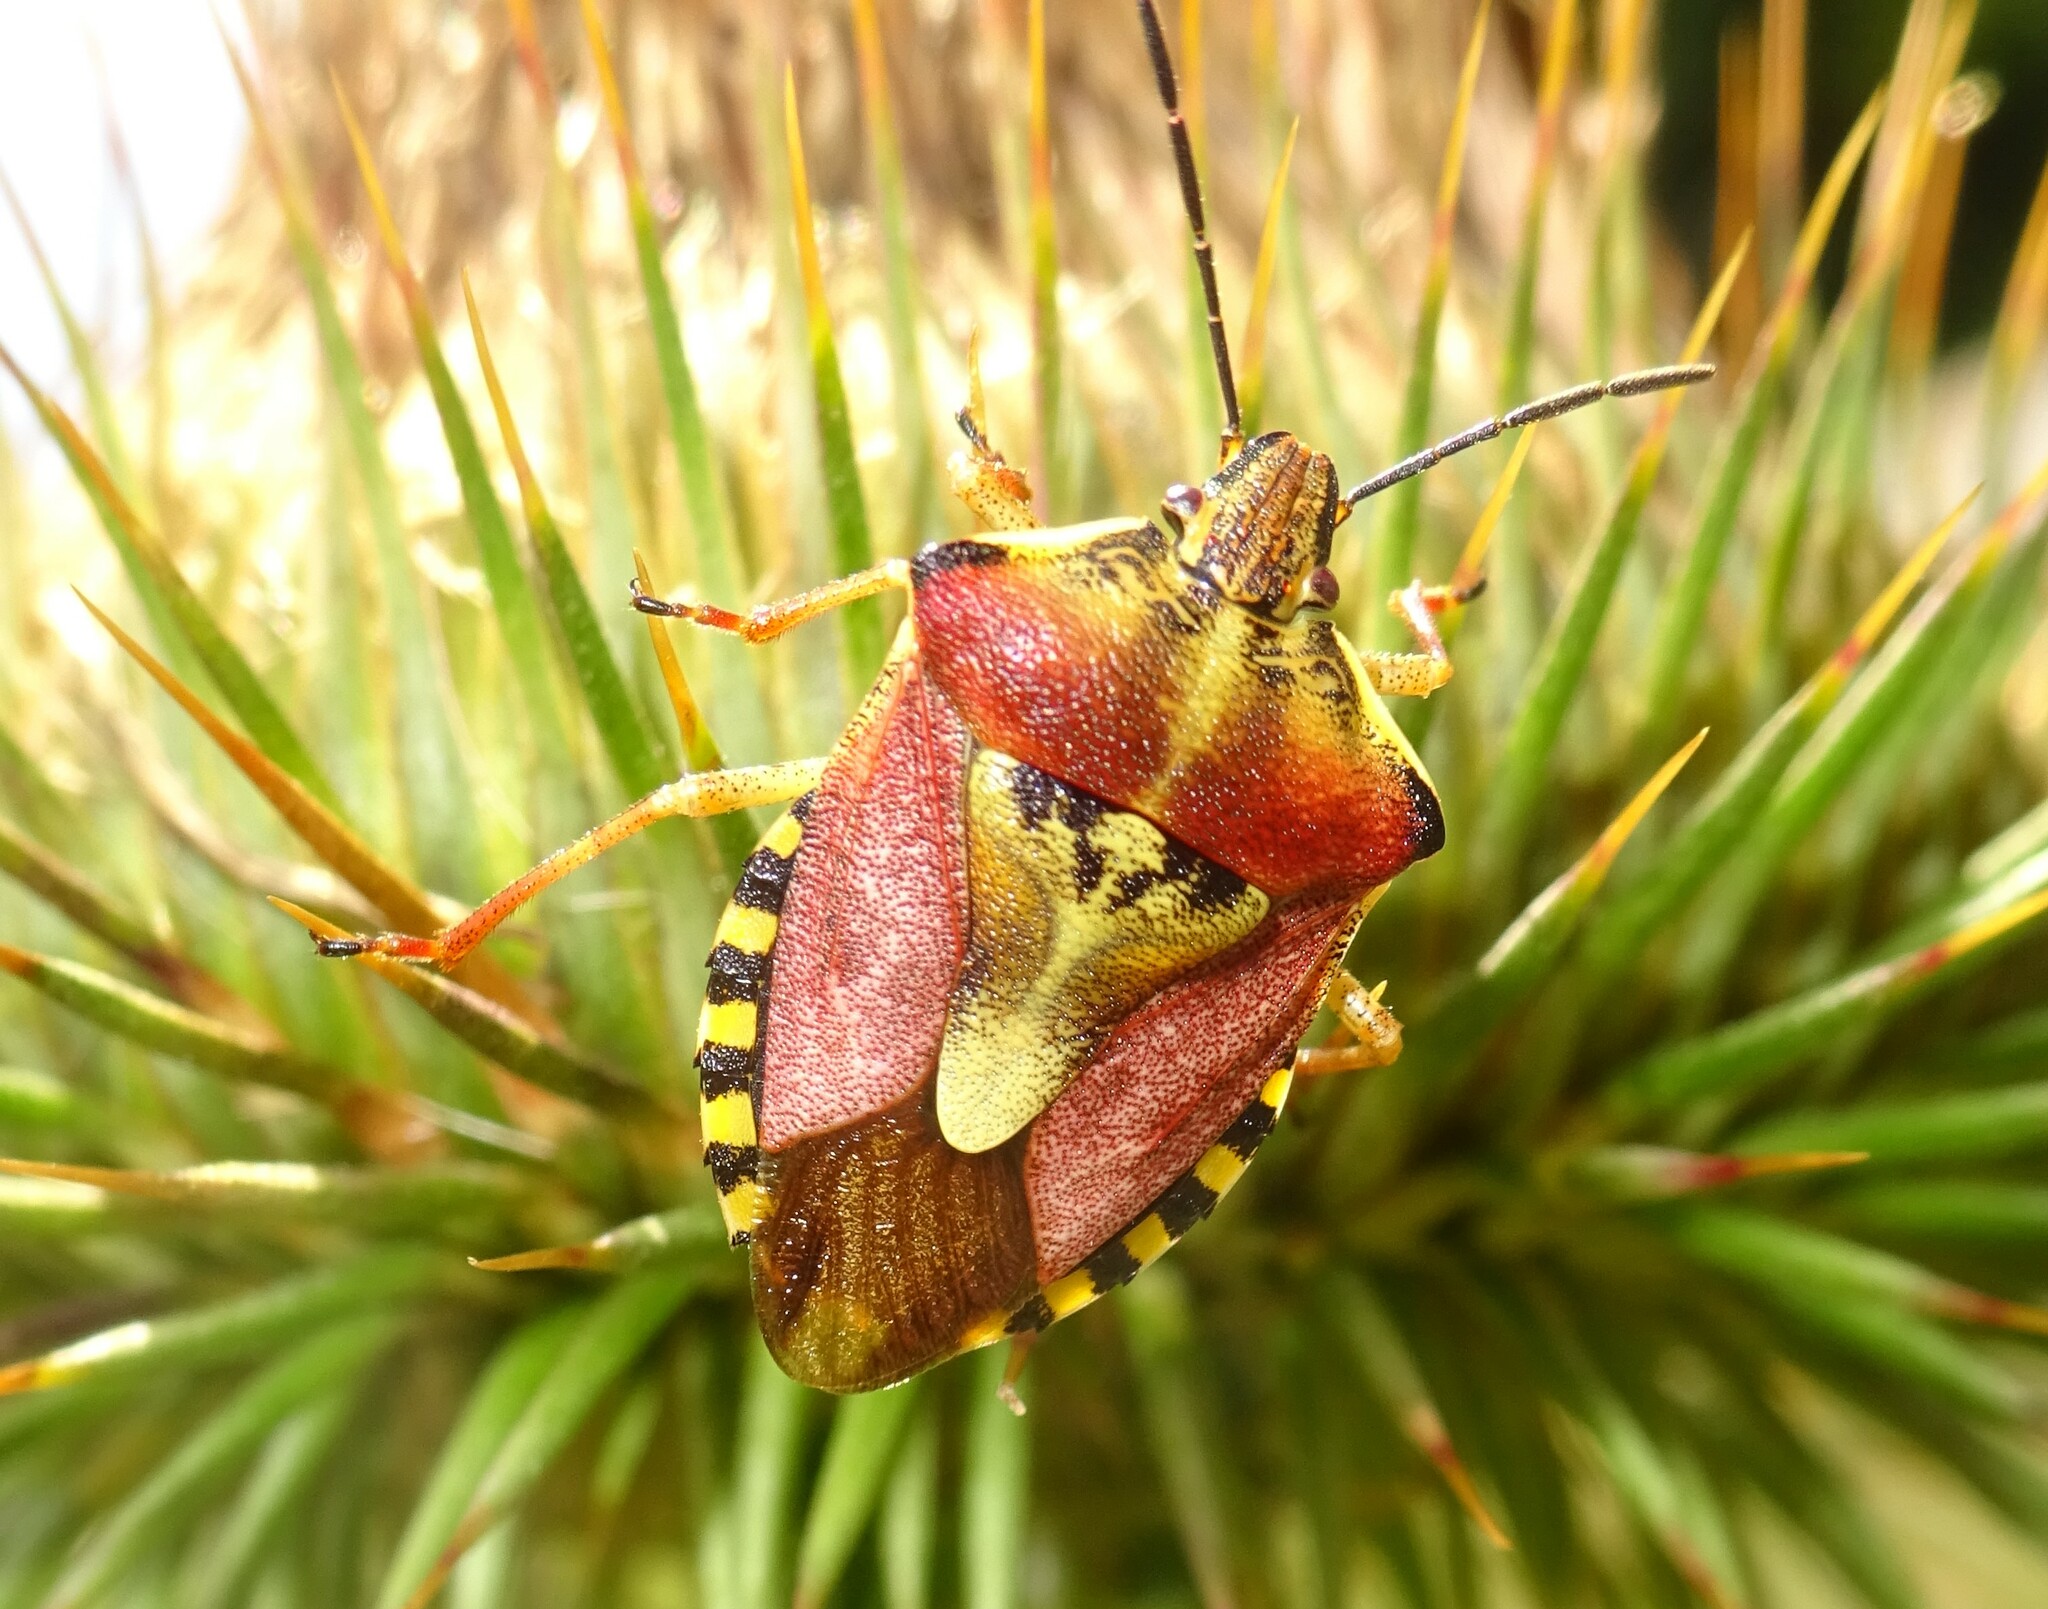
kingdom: Animalia
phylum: Arthropoda
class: Insecta
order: Hemiptera
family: Pentatomidae
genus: Carpocoris
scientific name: Carpocoris purpureipennis
